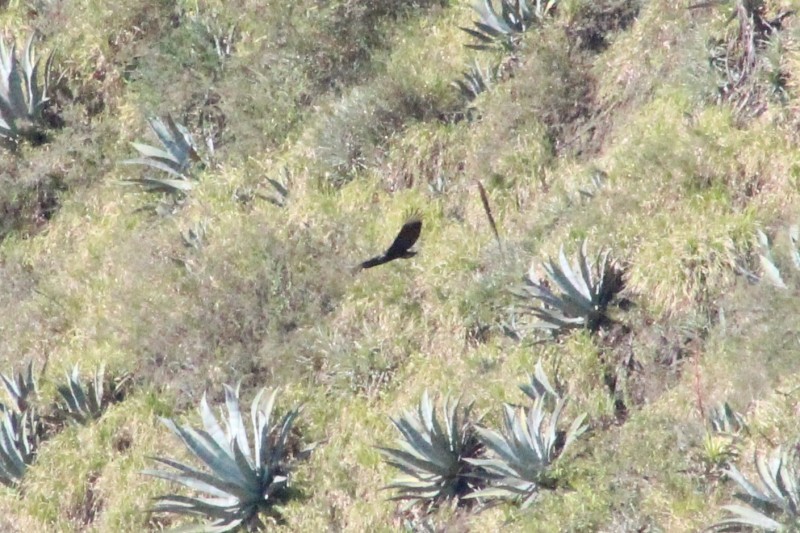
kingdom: Animalia
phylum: Chordata
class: Aves
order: Accipitriformes
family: Cathartidae
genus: Coragyps
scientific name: Coragyps atratus
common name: Black vulture
